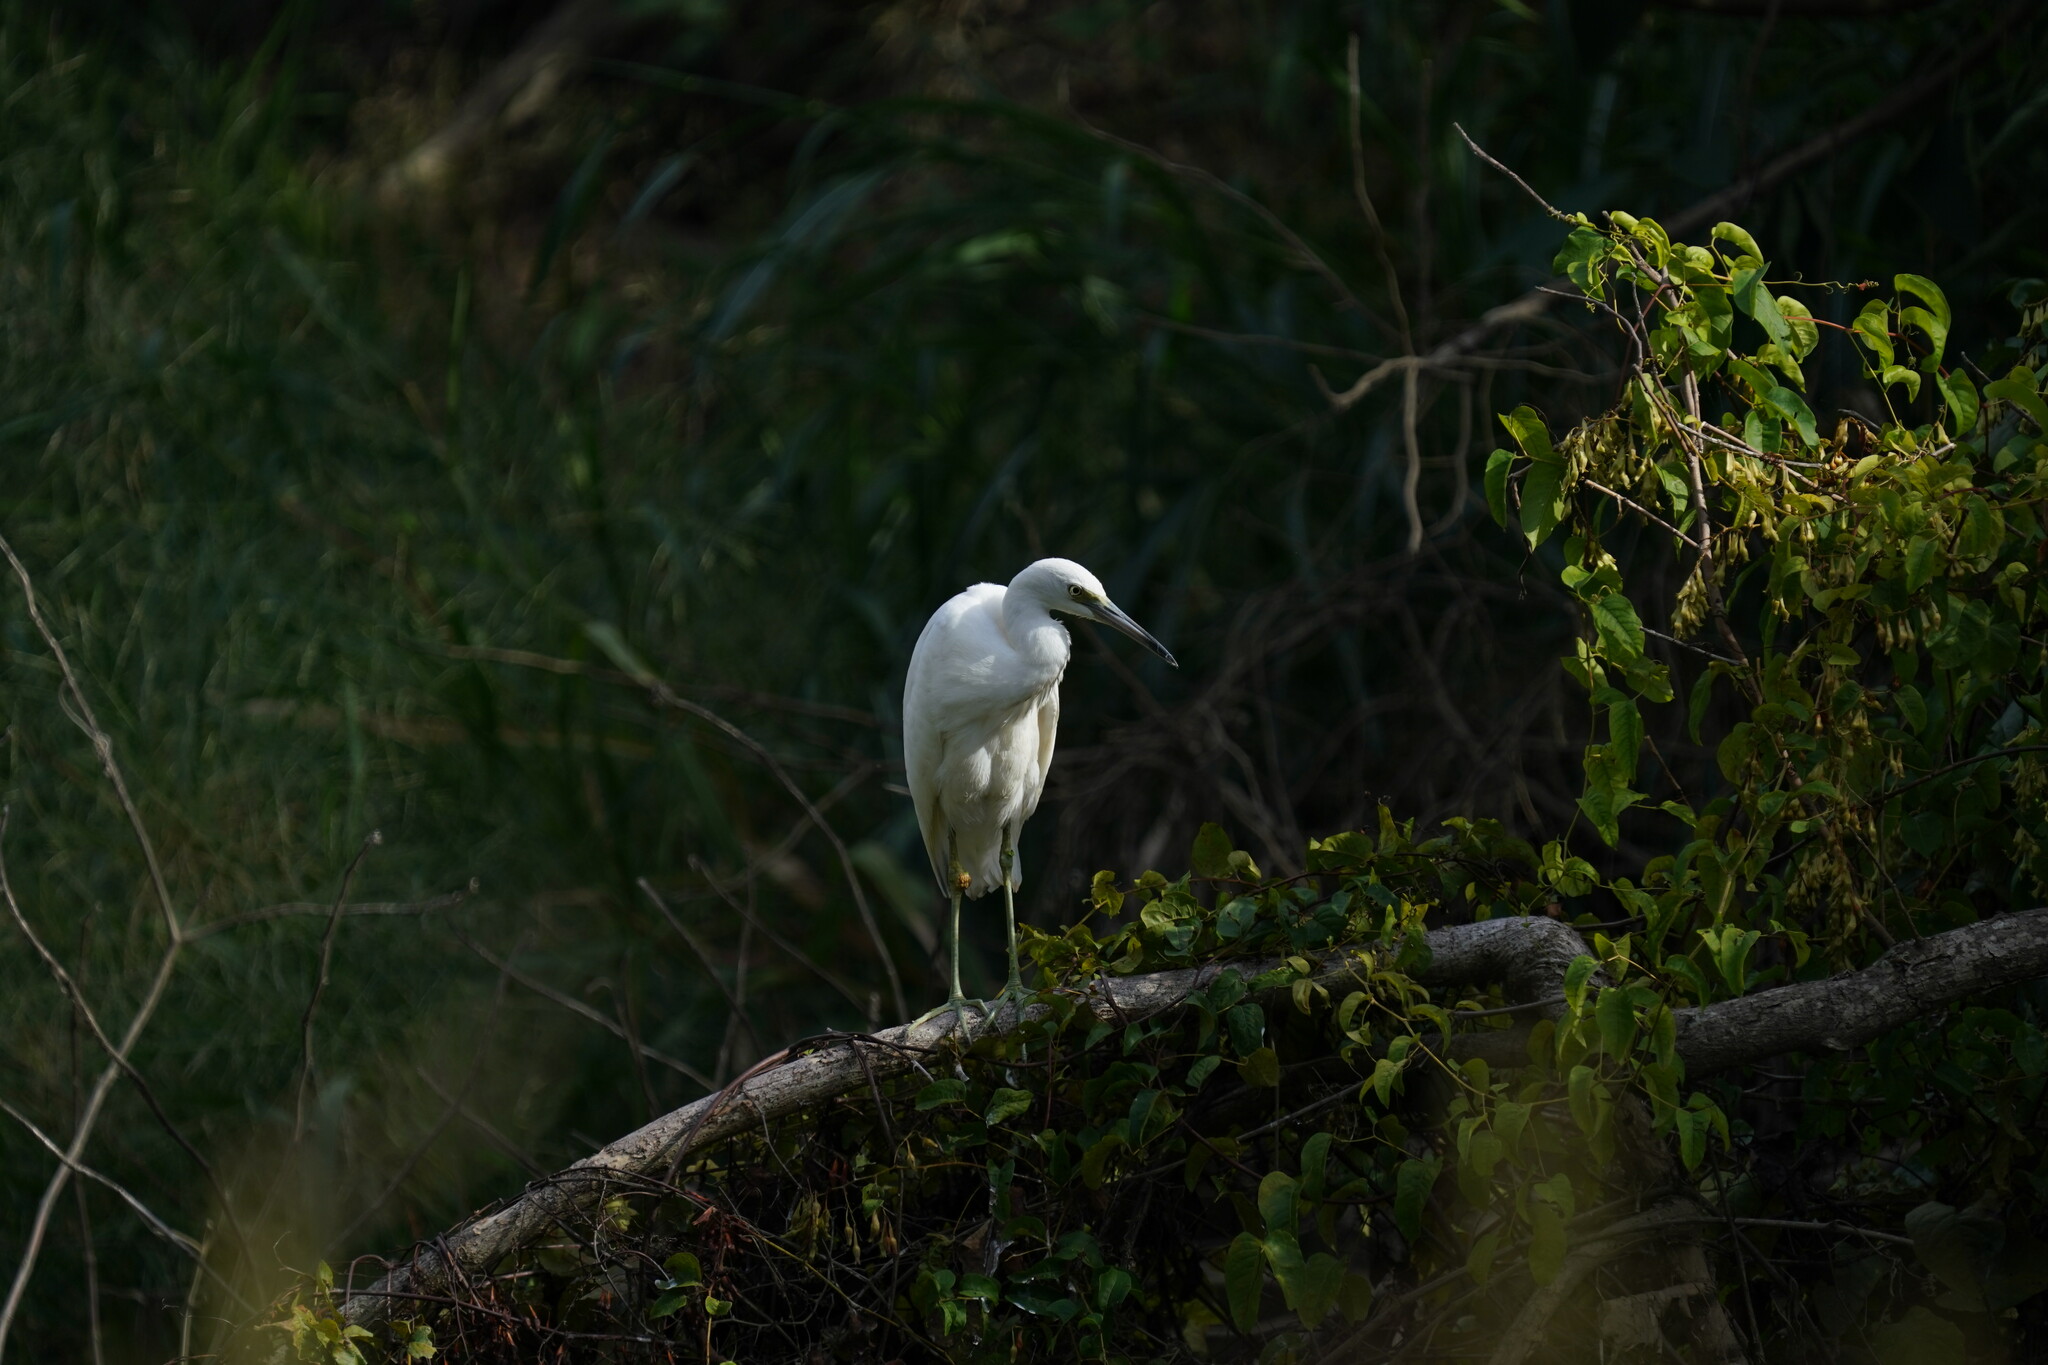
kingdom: Animalia
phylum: Chordata
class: Aves
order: Pelecaniformes
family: Ardeidae
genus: Egretta
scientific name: Egretta caerulea
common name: Little blue heron
